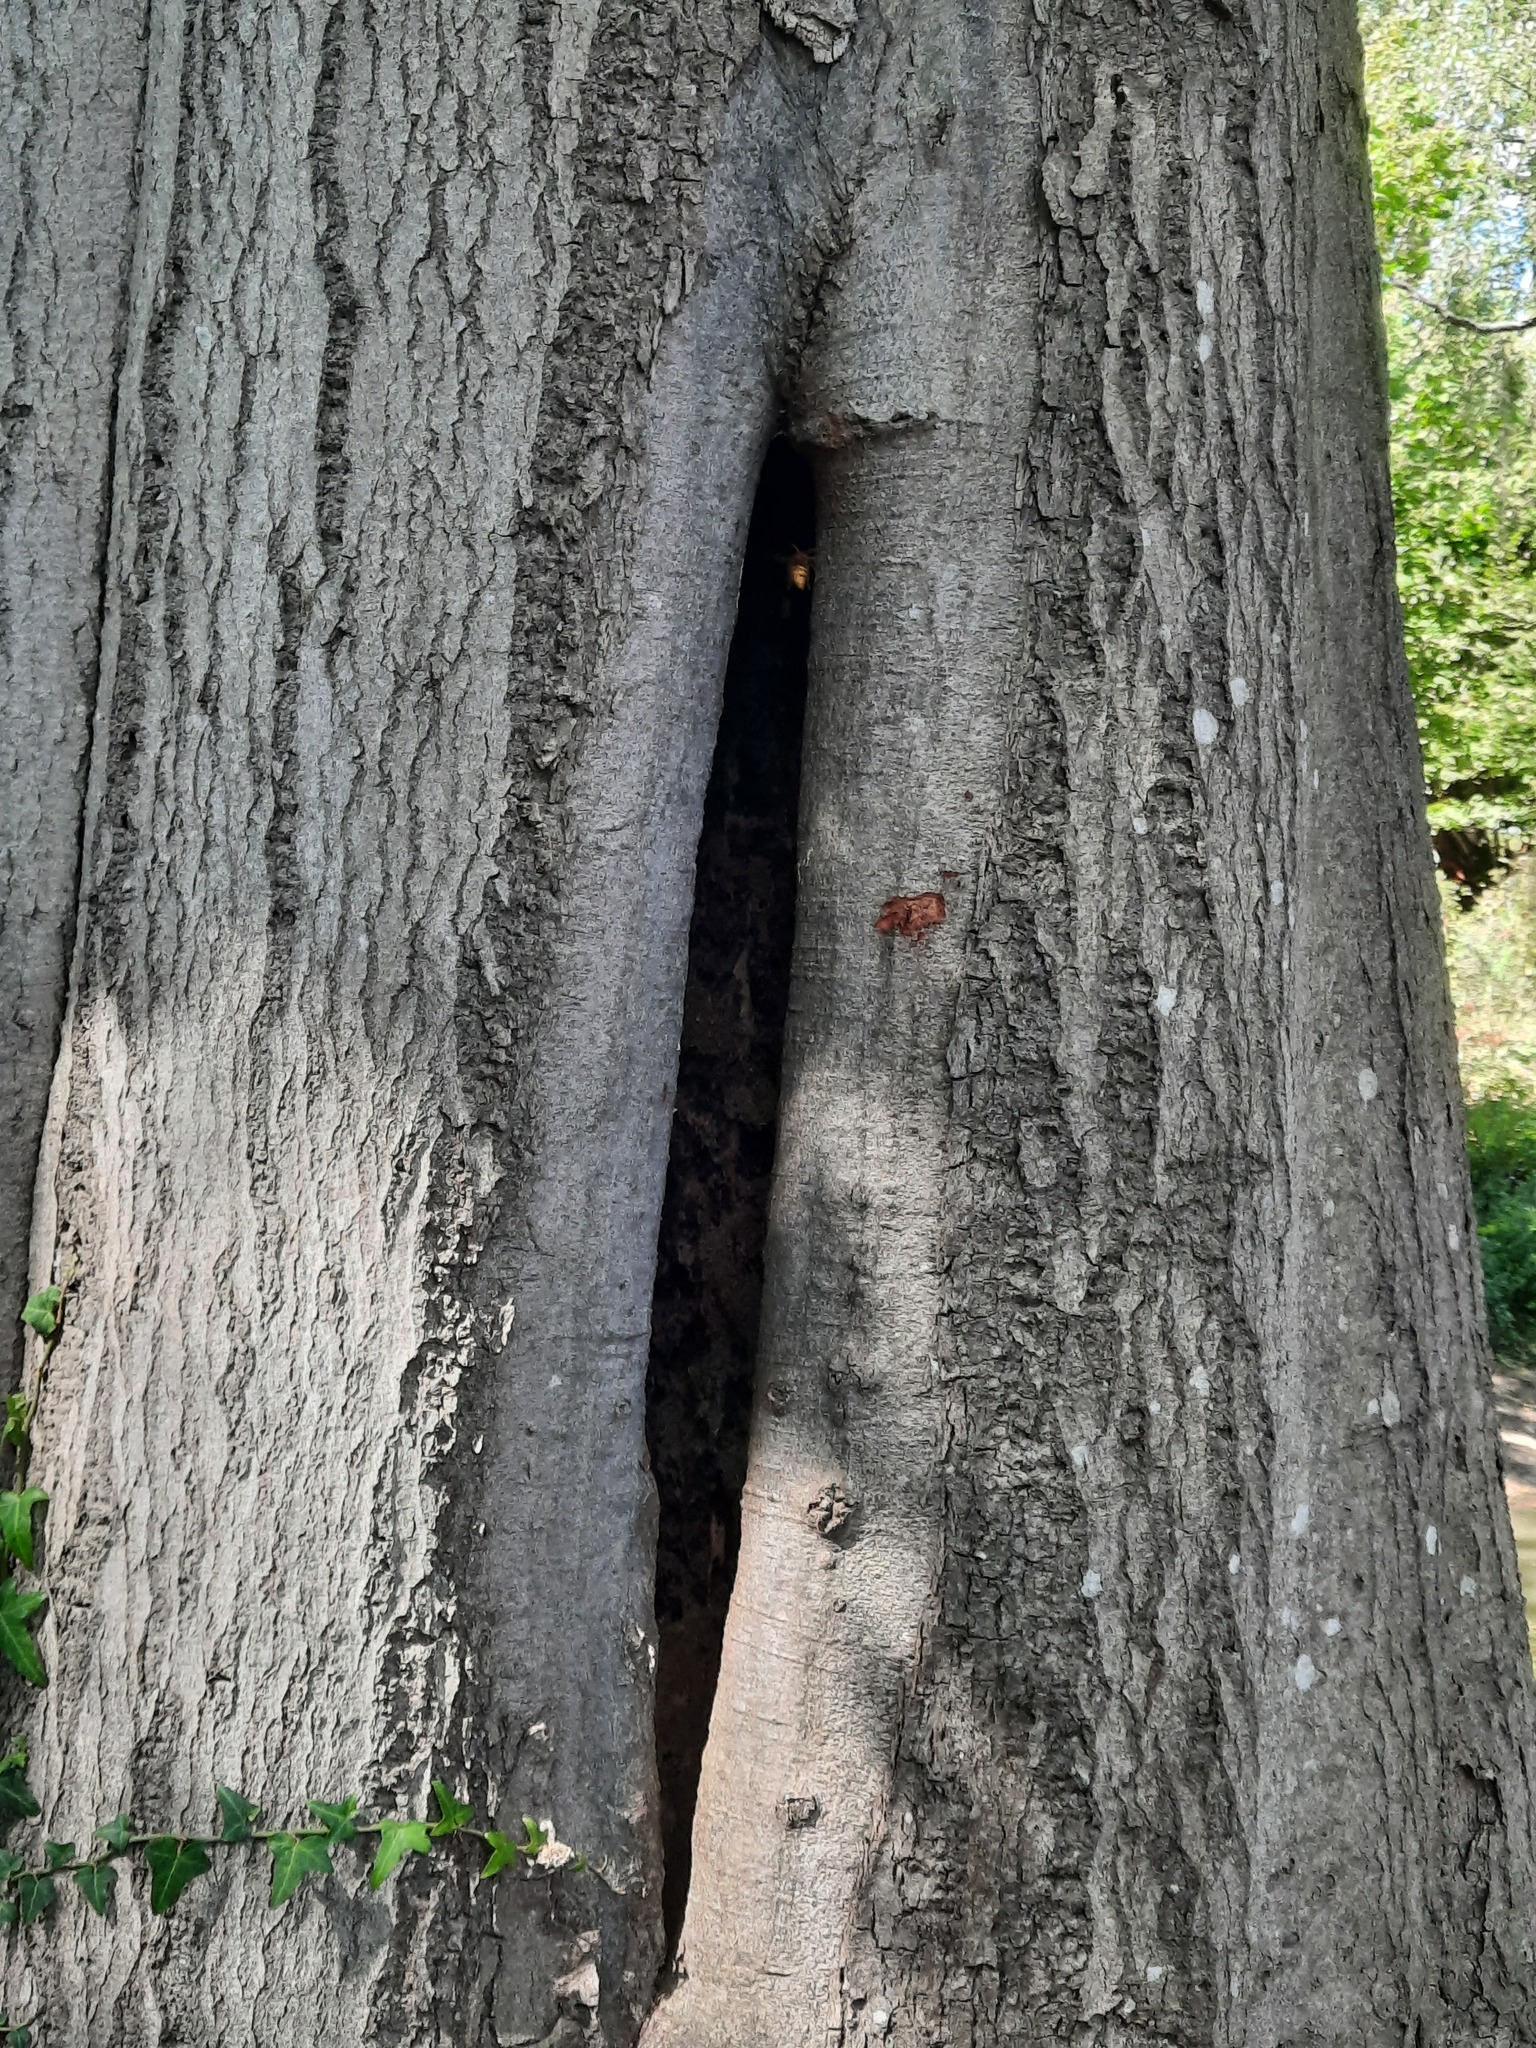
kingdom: Animalia
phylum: Arthropoda
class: Insecta
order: Hymenoptera
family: Vespidae
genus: Vespa
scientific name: Vespa crabro
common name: Hornet
